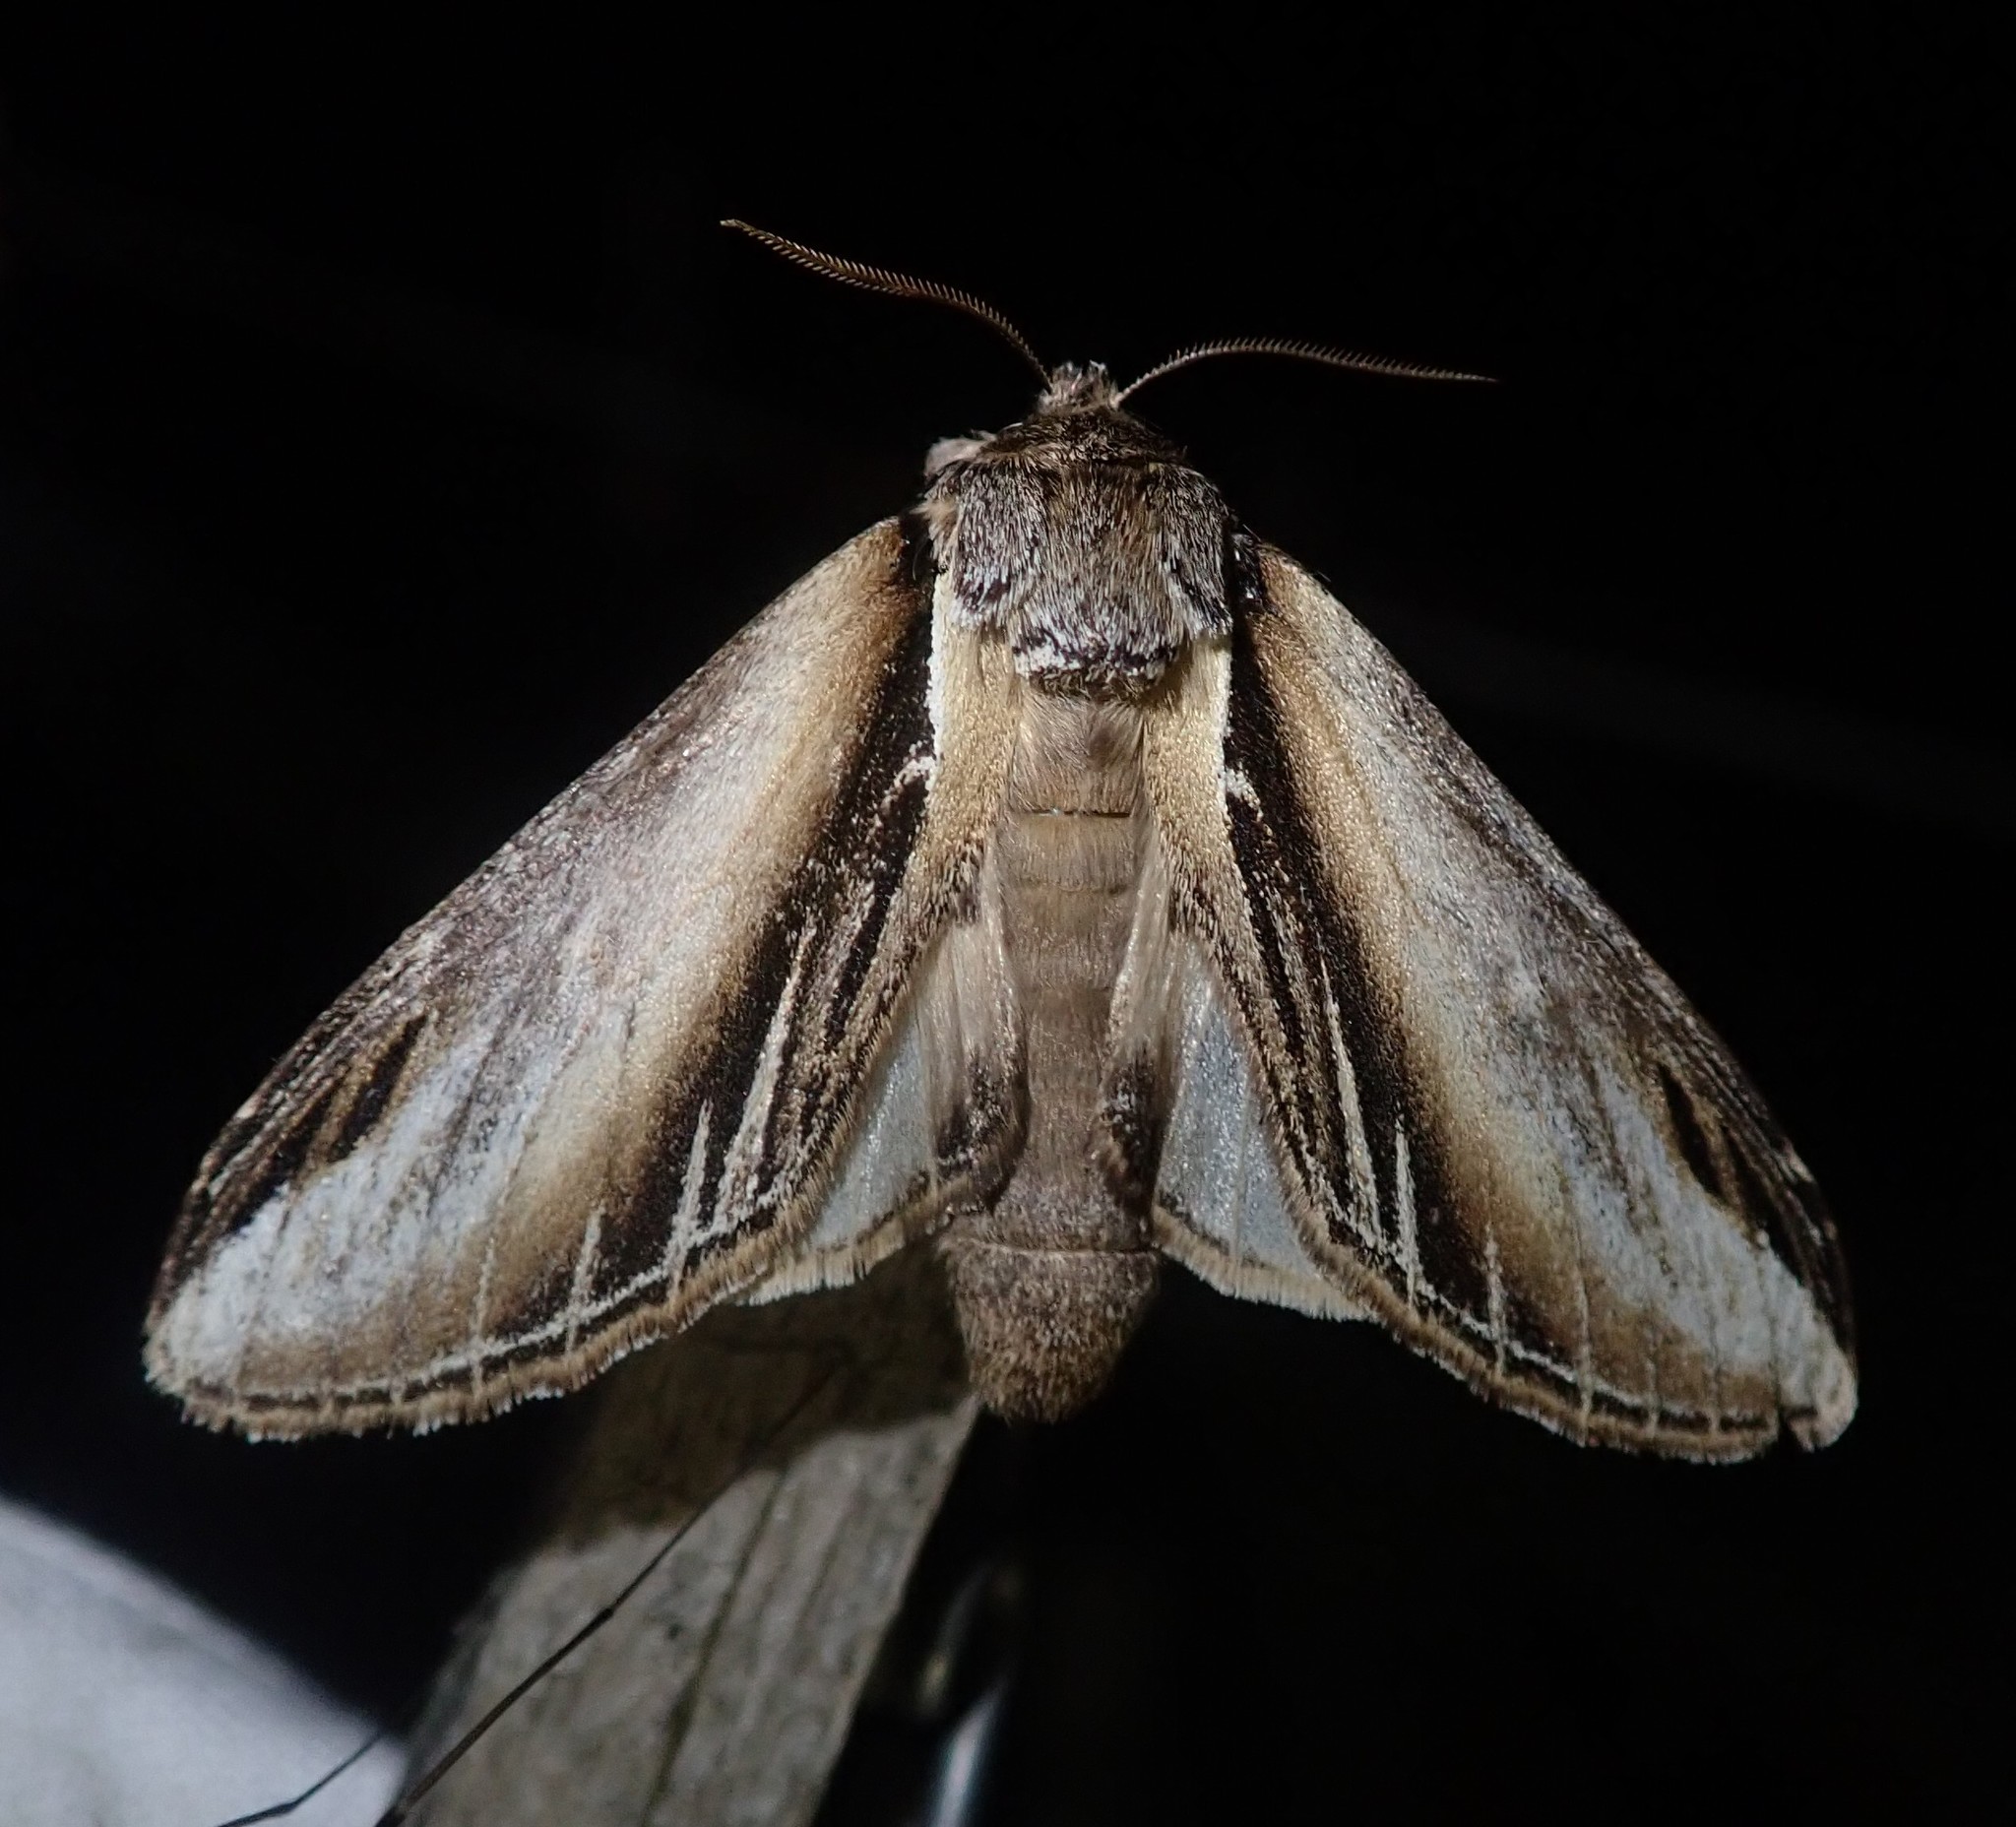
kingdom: Animalia
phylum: Arthropoda
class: Insecta
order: Lepidoptera
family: Notodontidae
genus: Pheosia
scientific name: Pheosia tremula
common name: Swallow prominent
